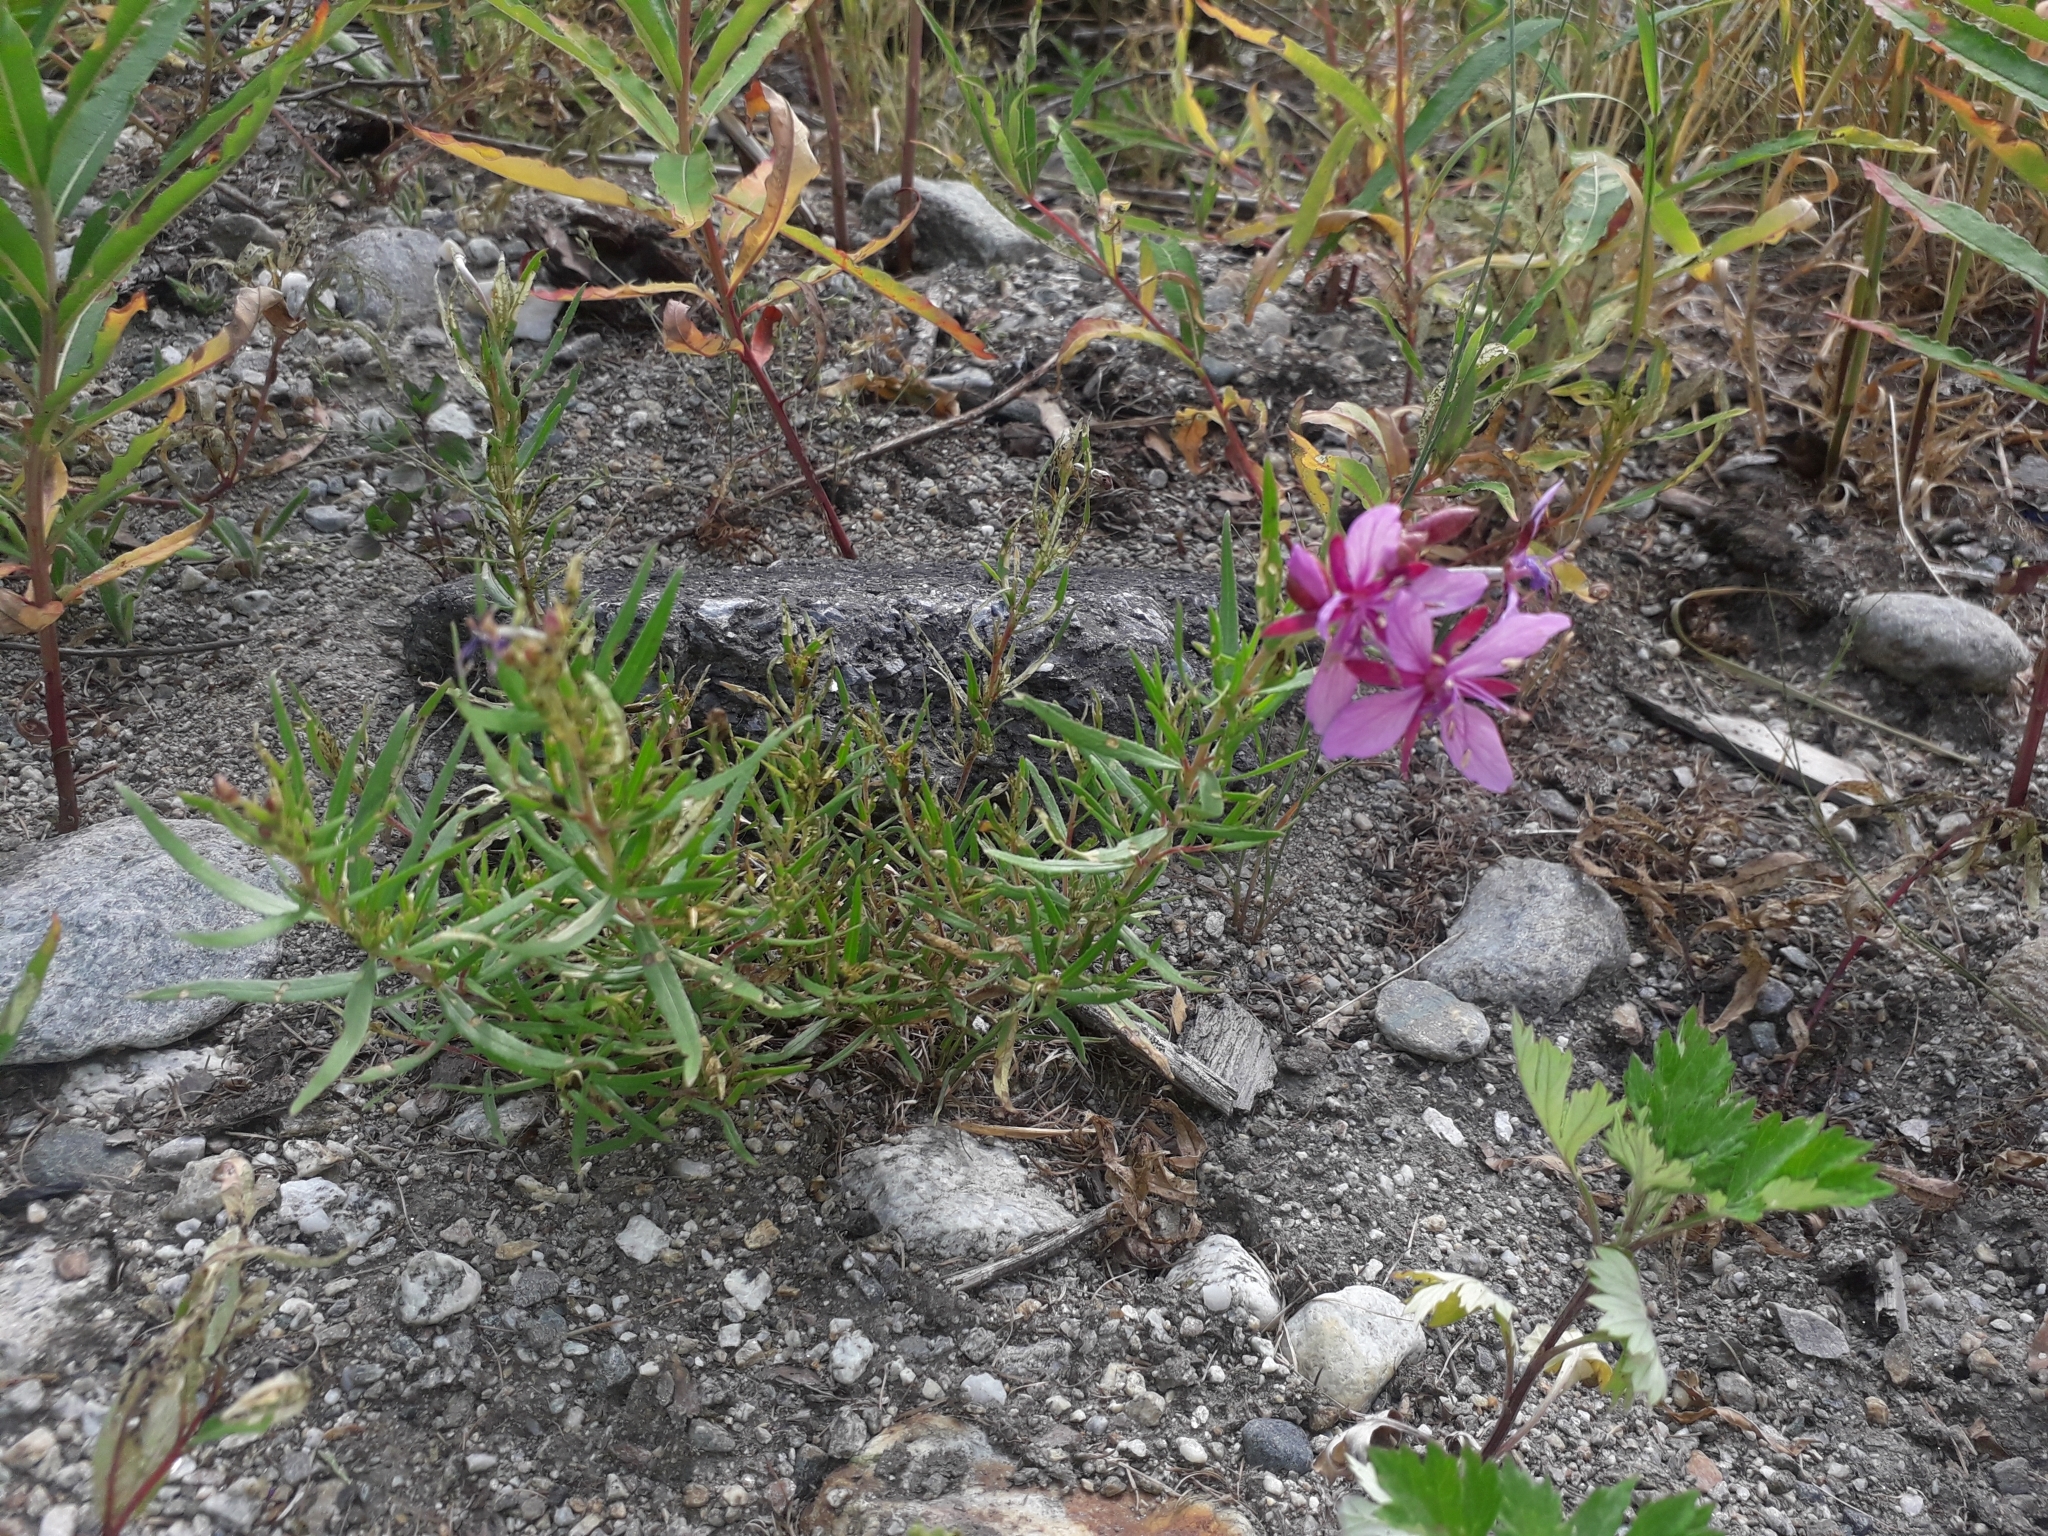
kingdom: Plantae
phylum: Tracheophyta
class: Magnoliopsida
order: Myrtales
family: Onagraceae
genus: Chamaenerion
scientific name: Chamaenerion fleischeri
